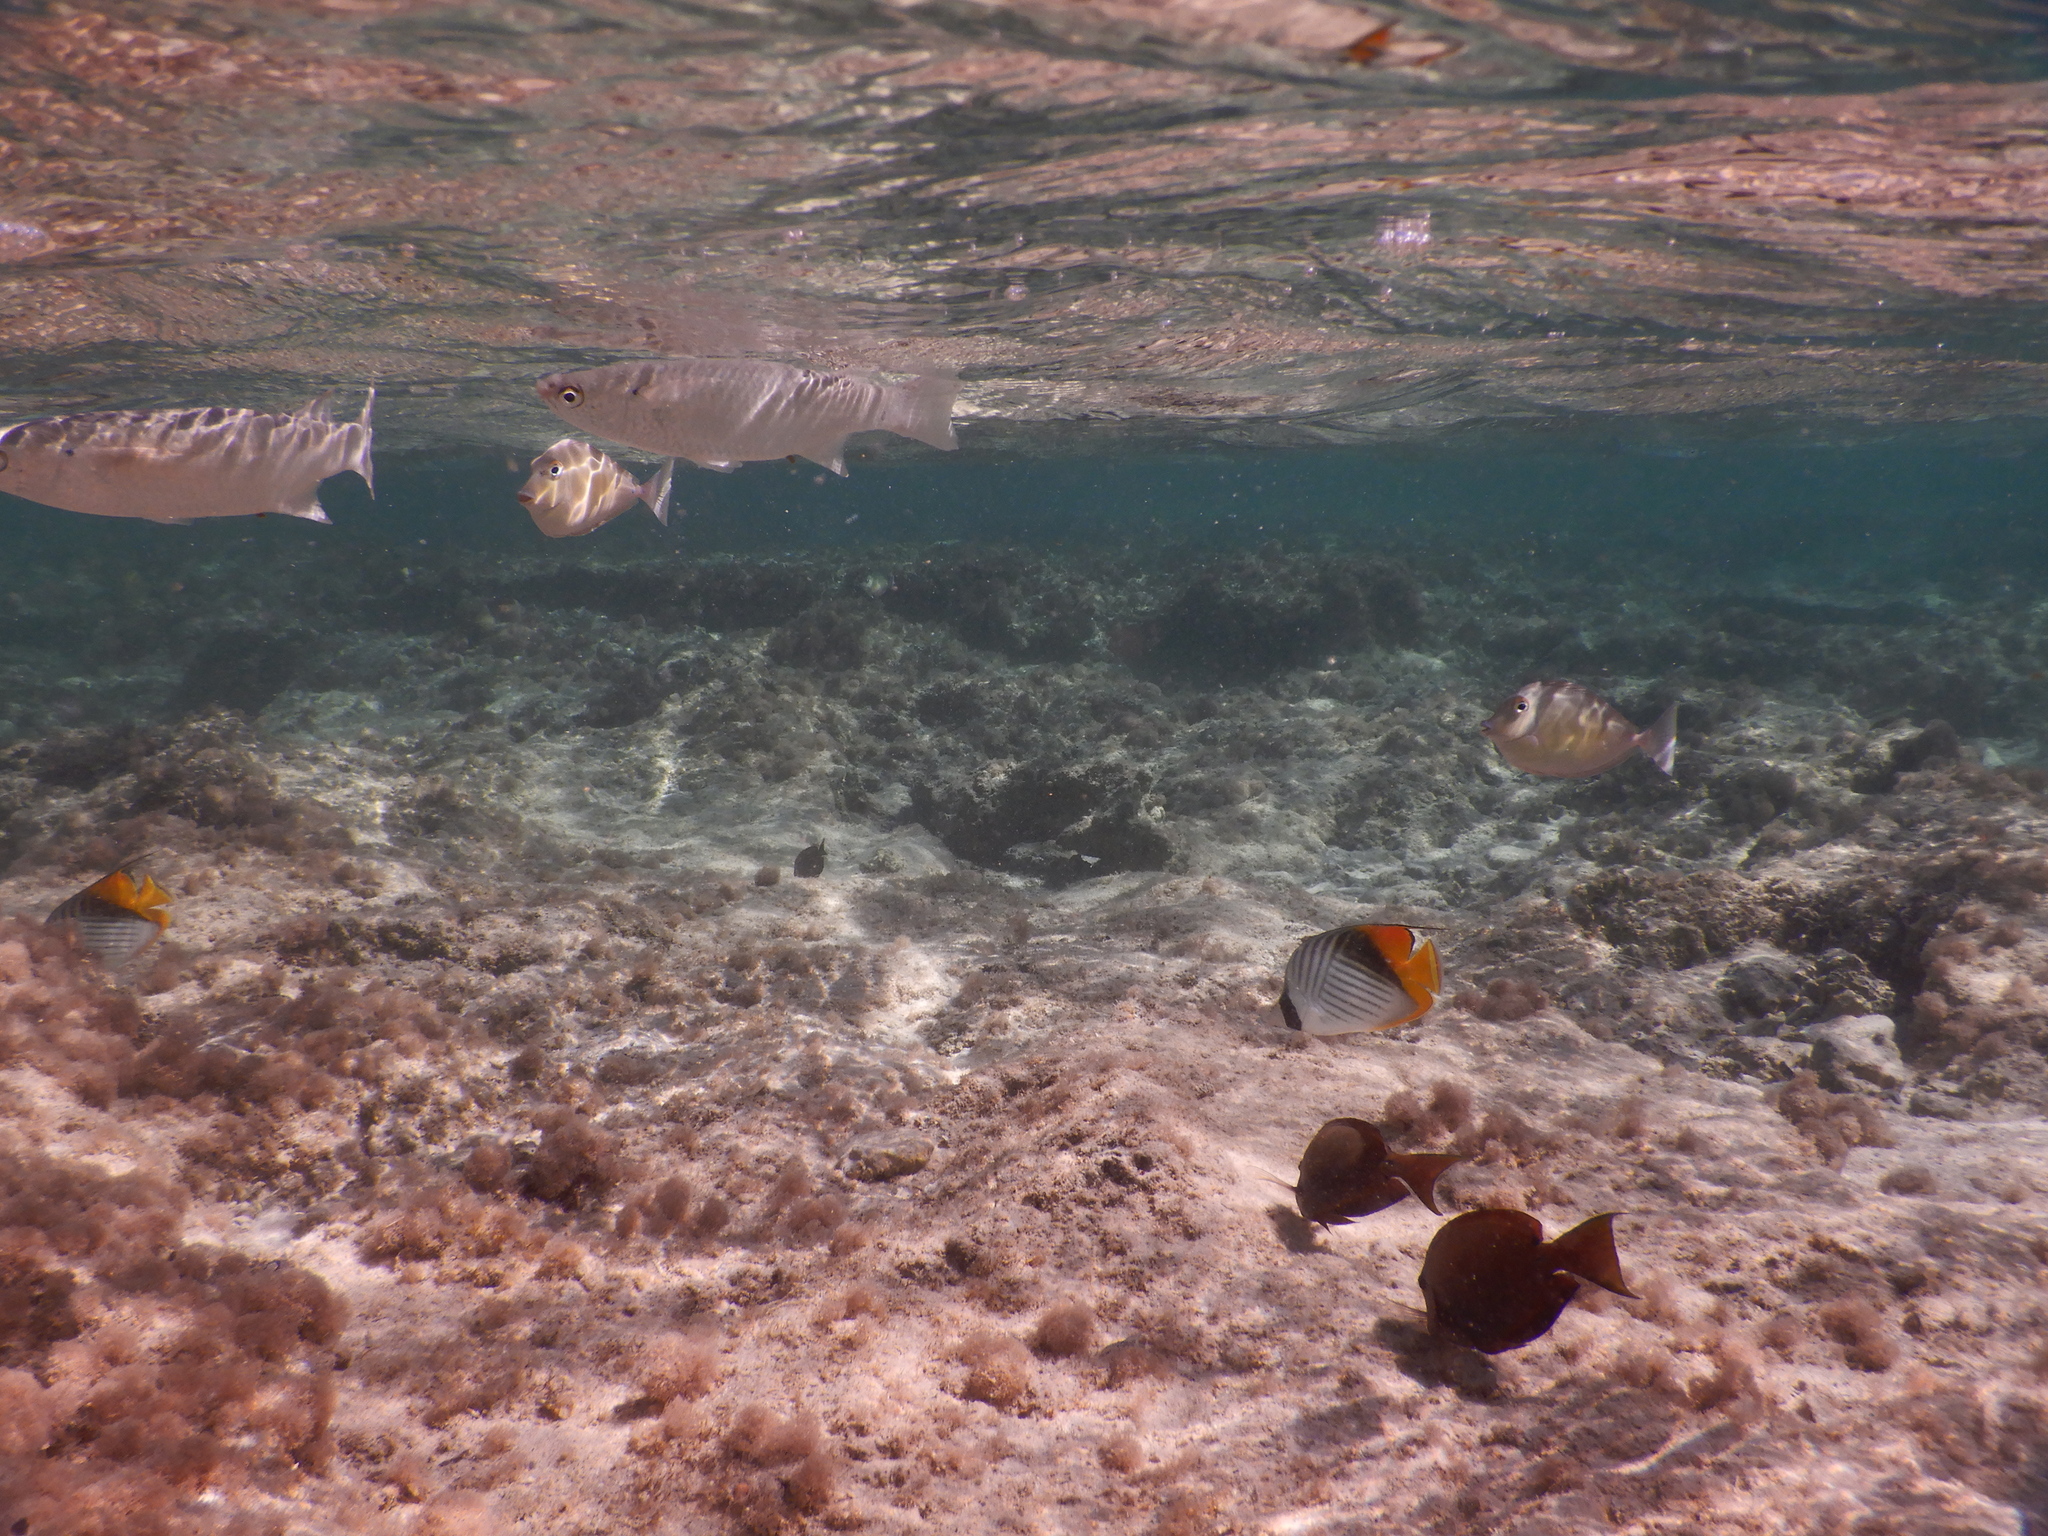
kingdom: Animalia
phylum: Chordata
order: Perciformes
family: Acanthuridae
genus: Naso
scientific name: Naso unicornis
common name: Bluespine unicornfish
